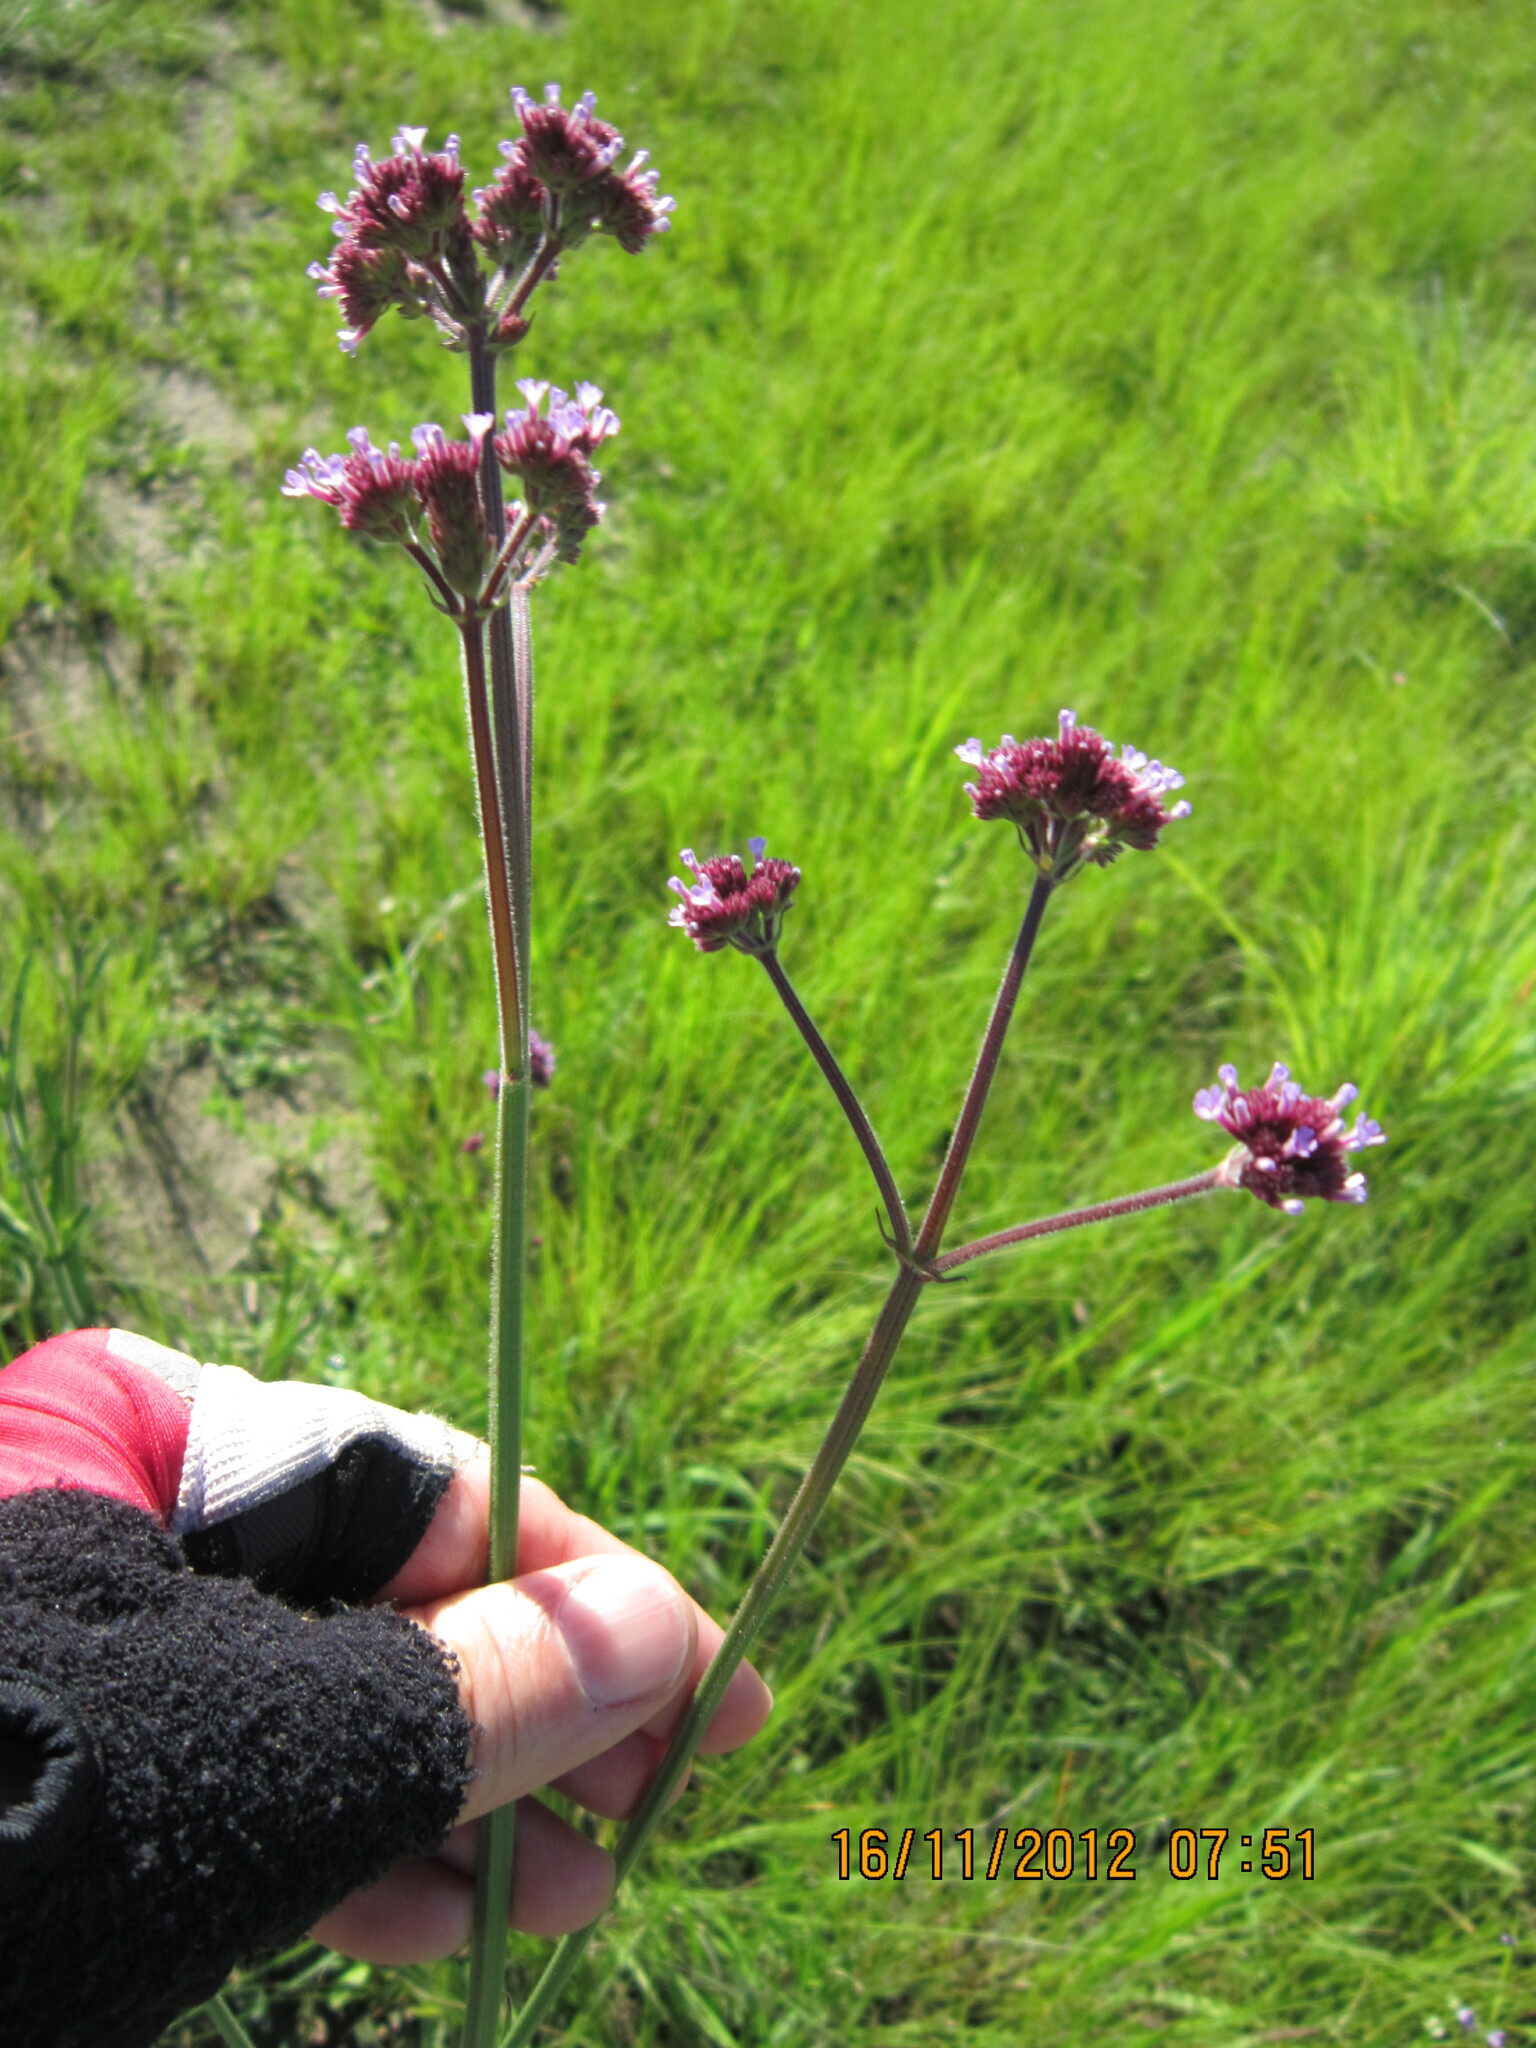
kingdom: Plantae
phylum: Tracheophyta
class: Magnoliopsida
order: Lamiales
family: Verbenaceae
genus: Verbena
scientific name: Verbena brasiliensis
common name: Brazilian vervain
